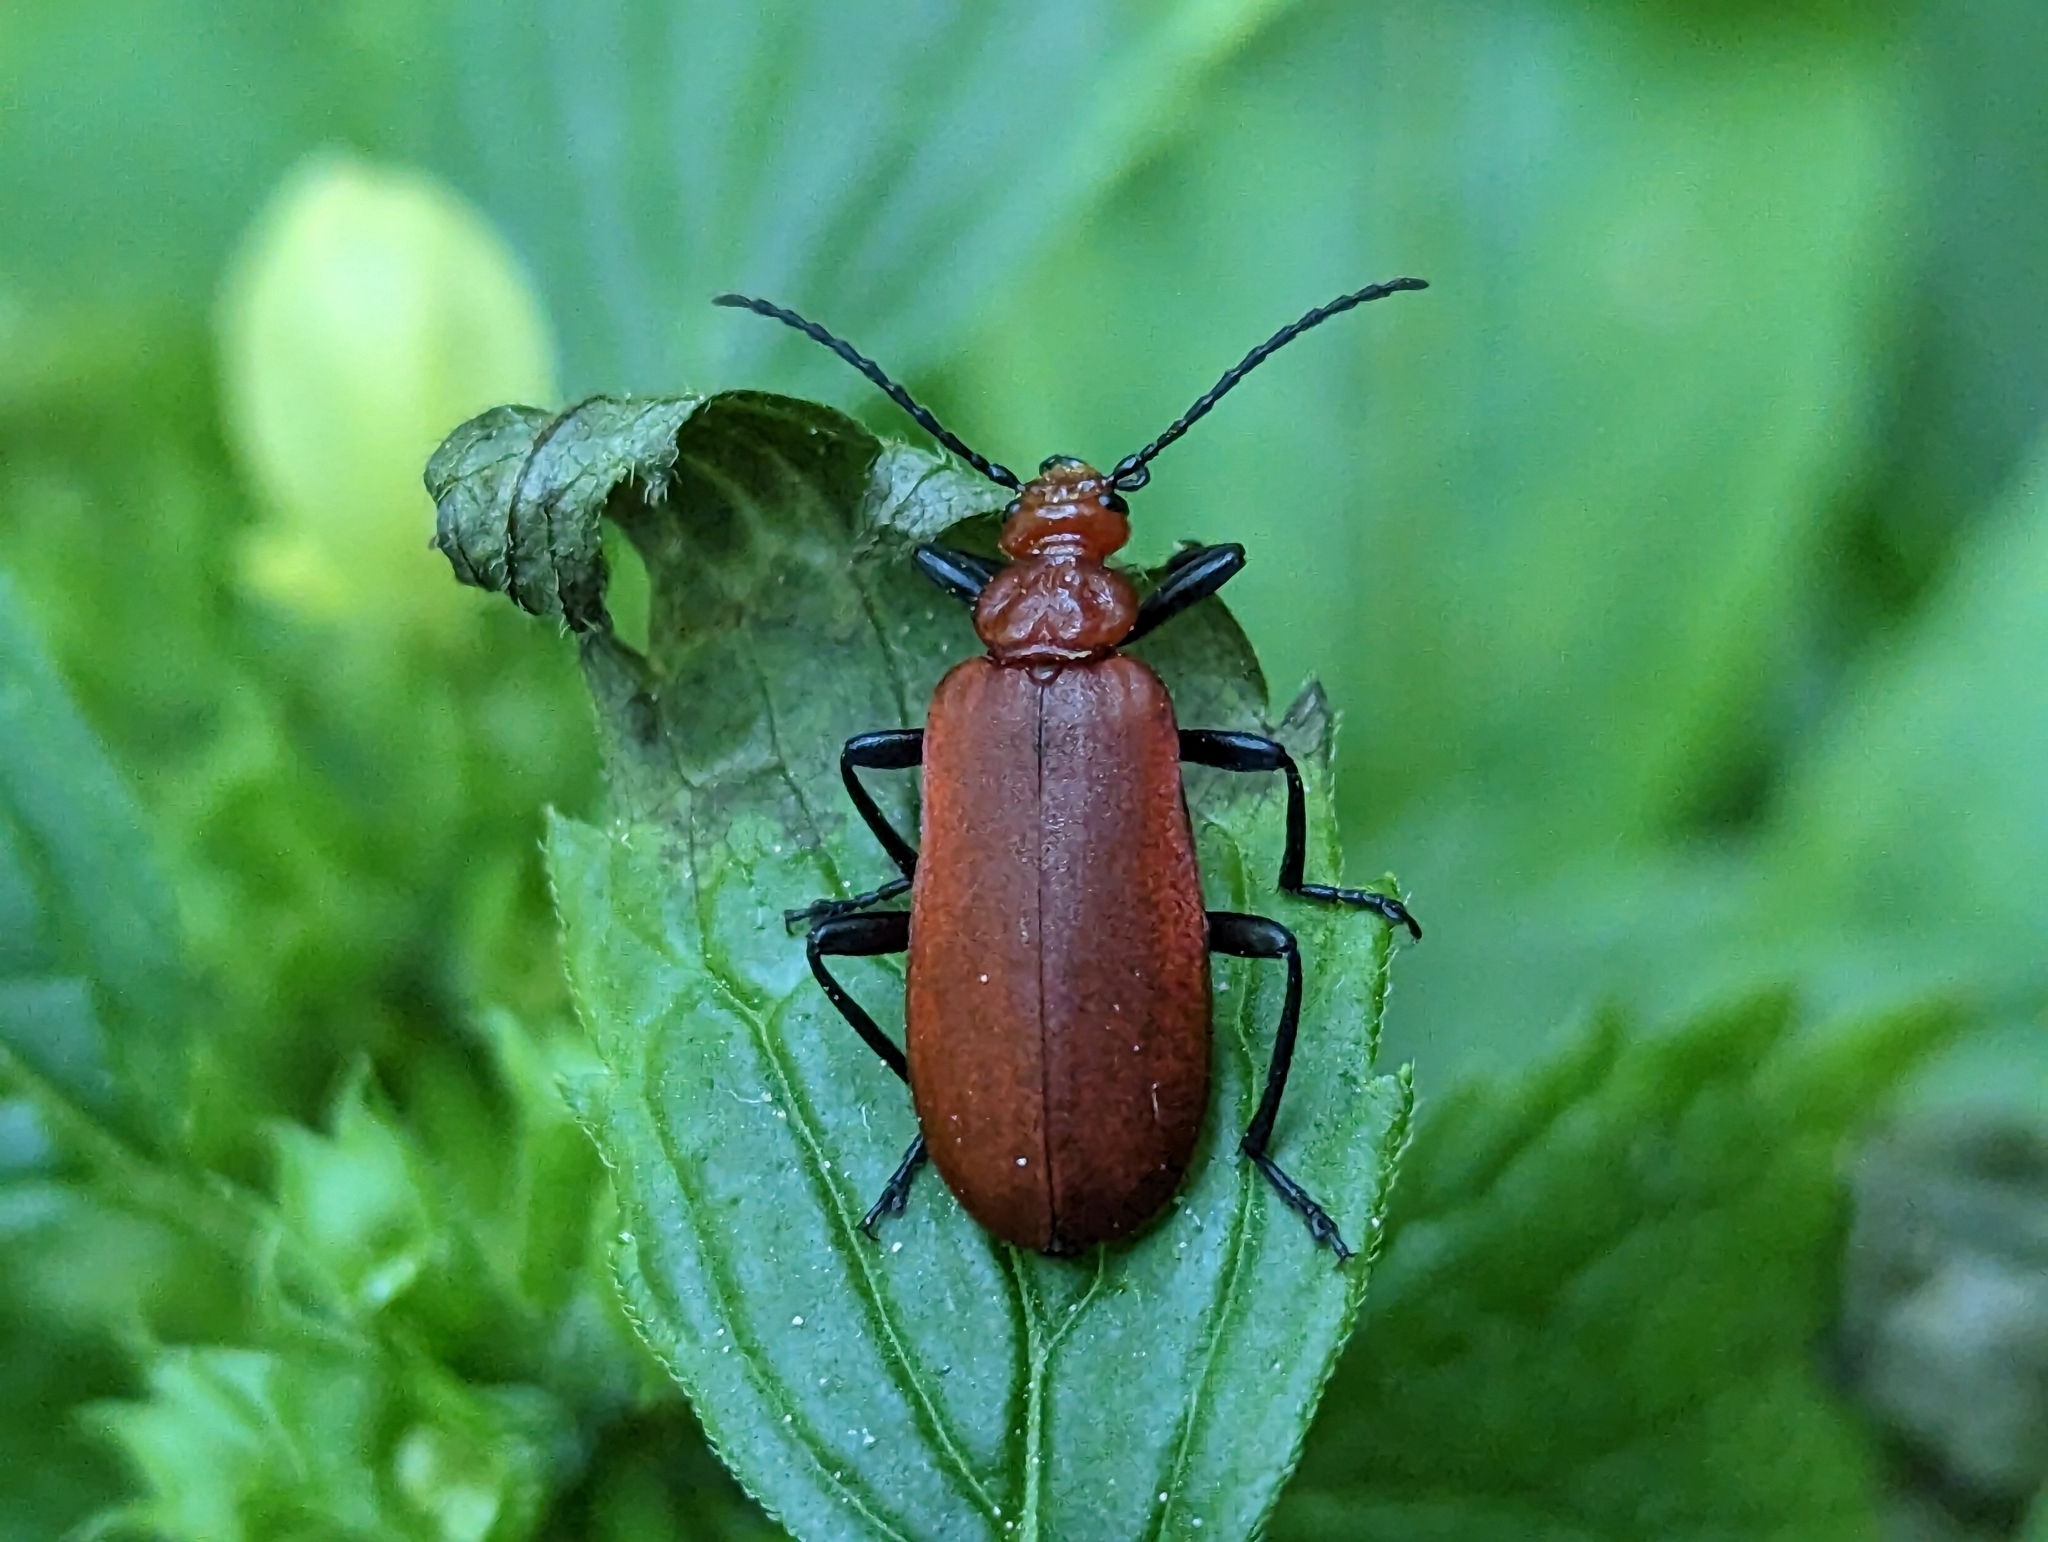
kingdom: Animalia
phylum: Arthropoda
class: Insecta
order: Coleoptera
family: Pyrochroidae
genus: Pyrochroa
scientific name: Pyrochroa serraticornis
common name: Red-headed cardinal beetle
